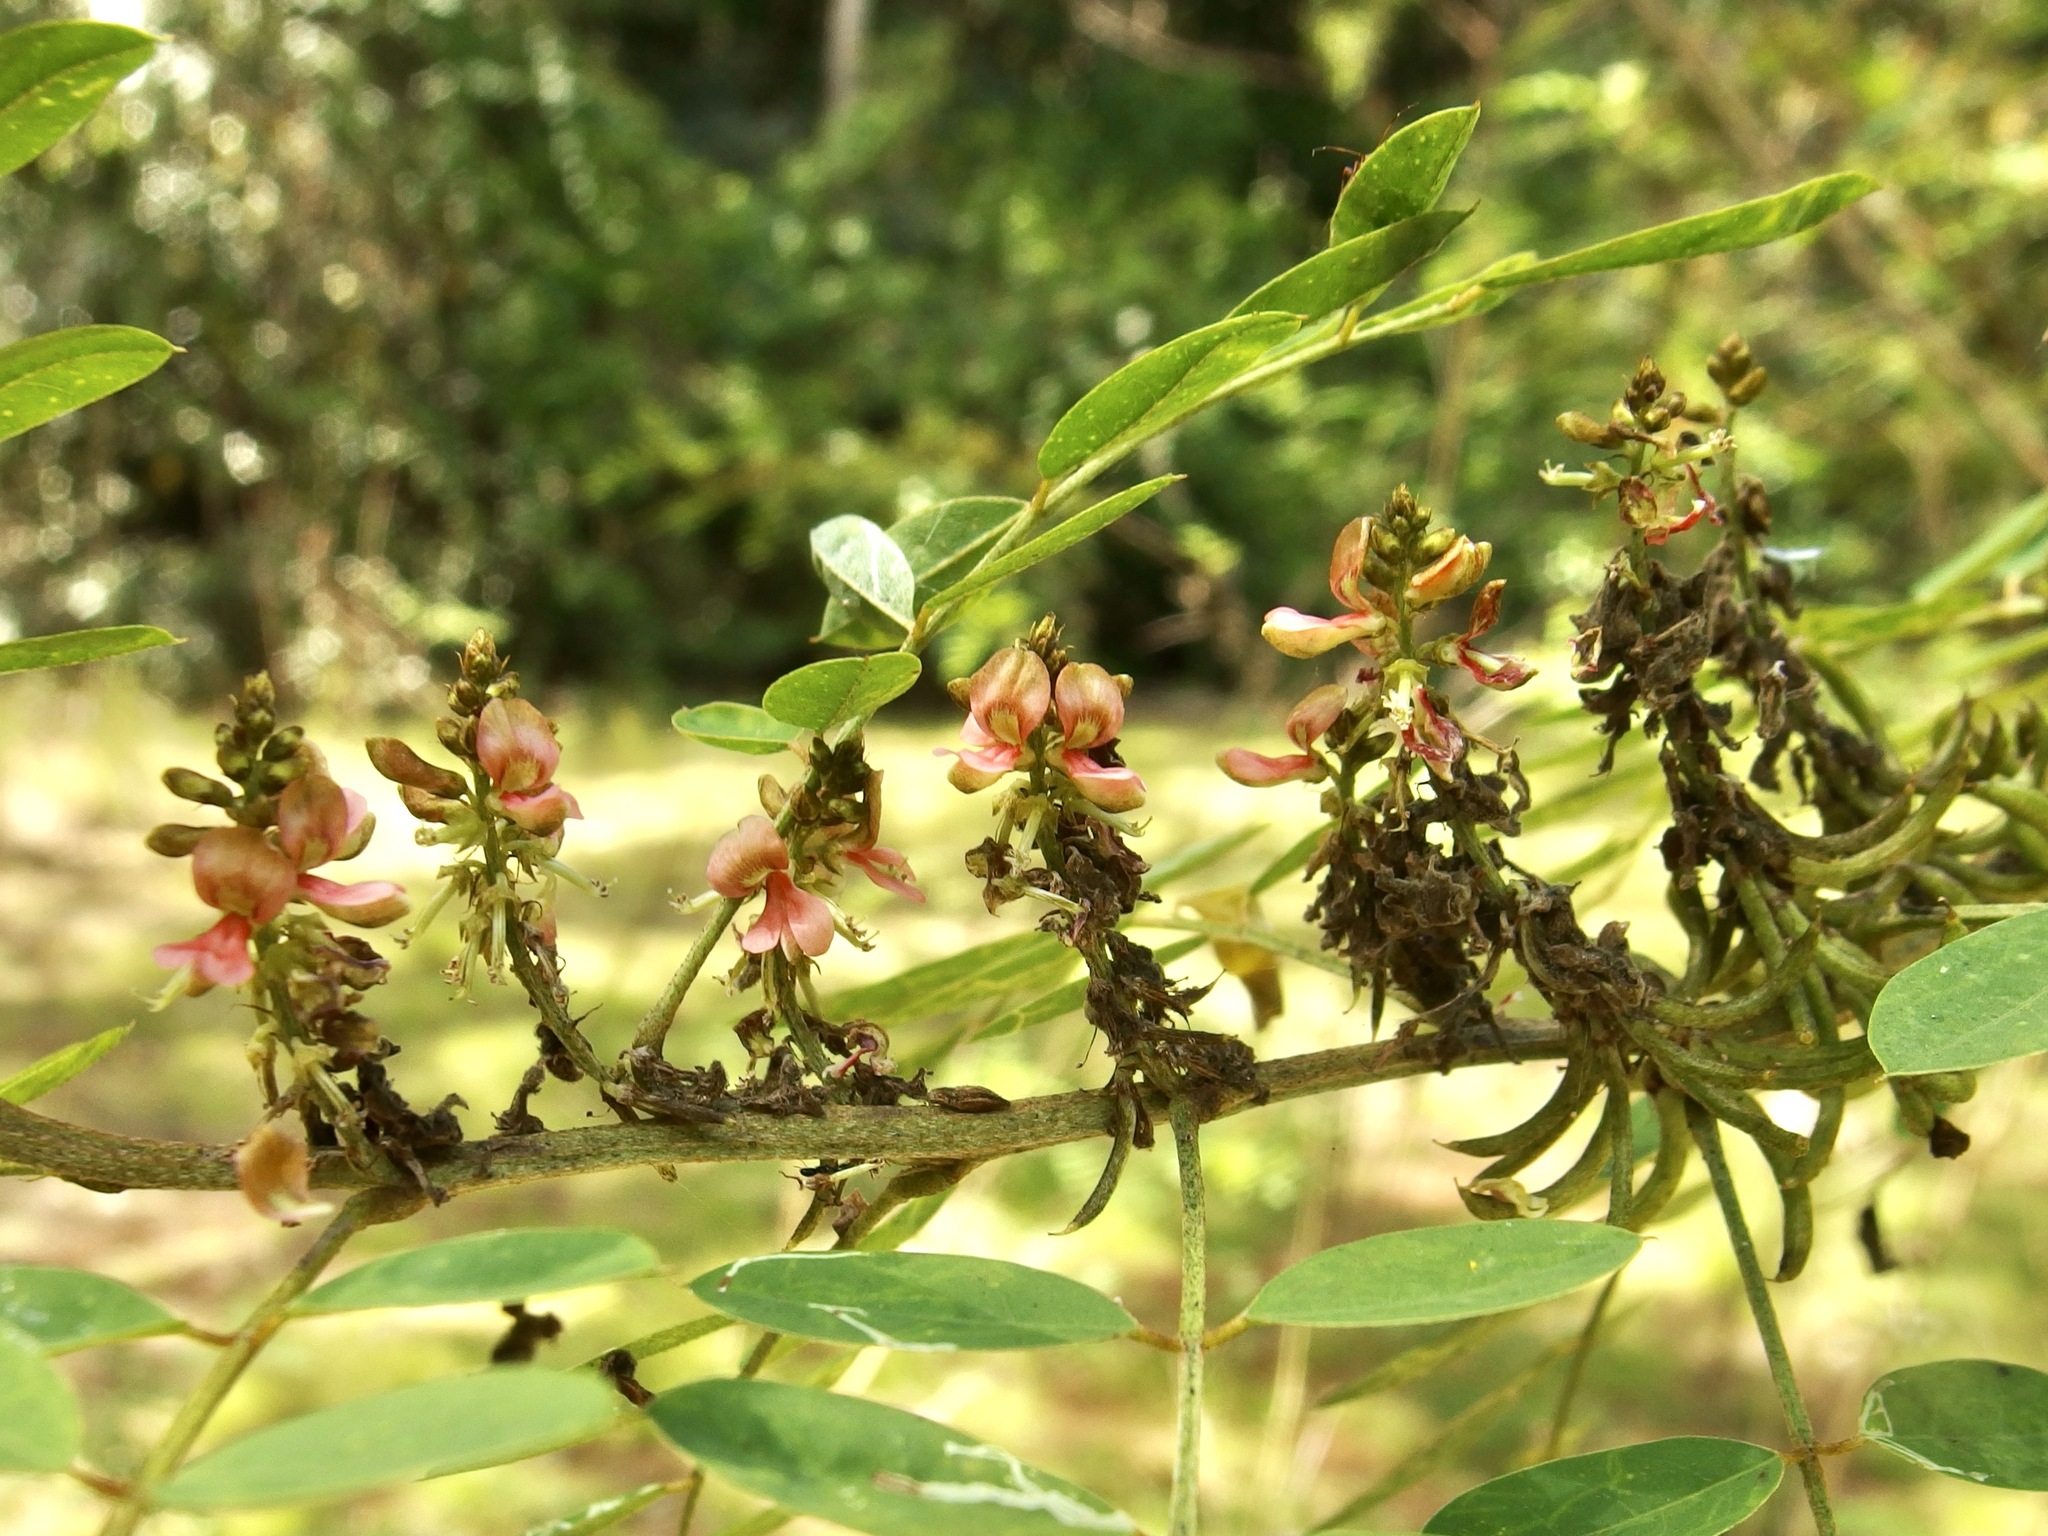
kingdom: Plantae
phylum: Tracheophyta
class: Magnoliopsida
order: Fabales
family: Fabaceae
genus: Indigofera
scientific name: Indigofera suffruticosa
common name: Anil de pasto
